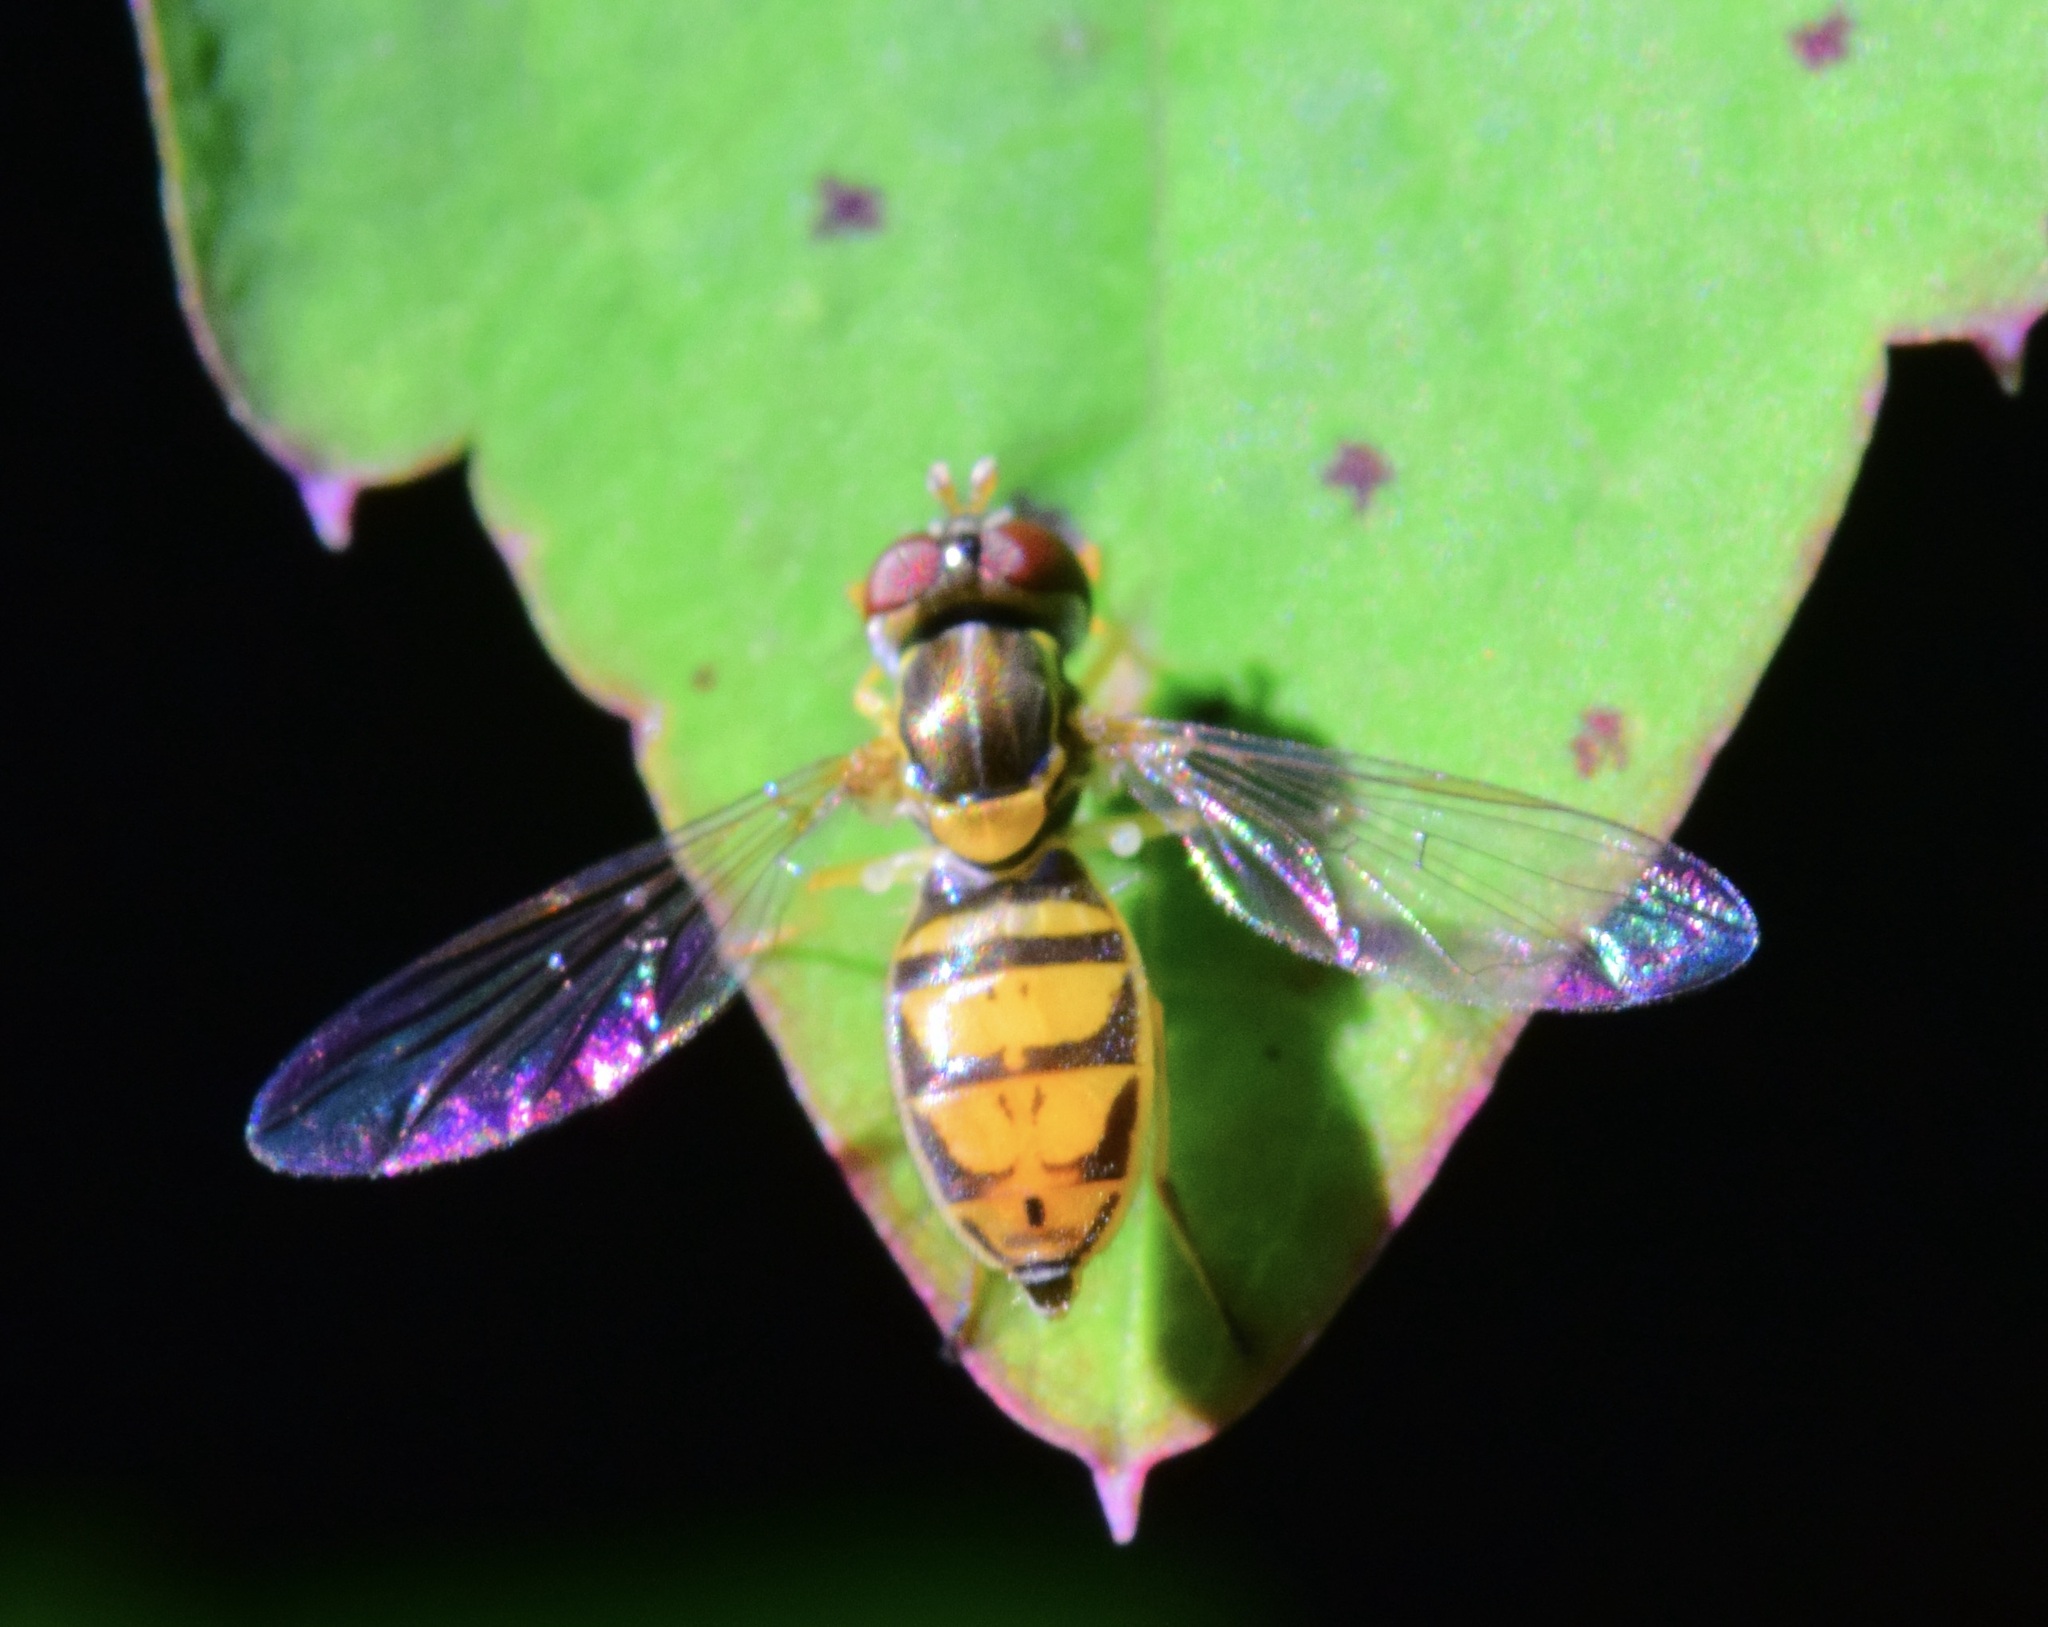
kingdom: Animalia
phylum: Arthropoda
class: Insecta
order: Diptera
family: Syrphidae
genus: Toxomerus
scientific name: Toxomerus marginatus
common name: Syrphid fly
